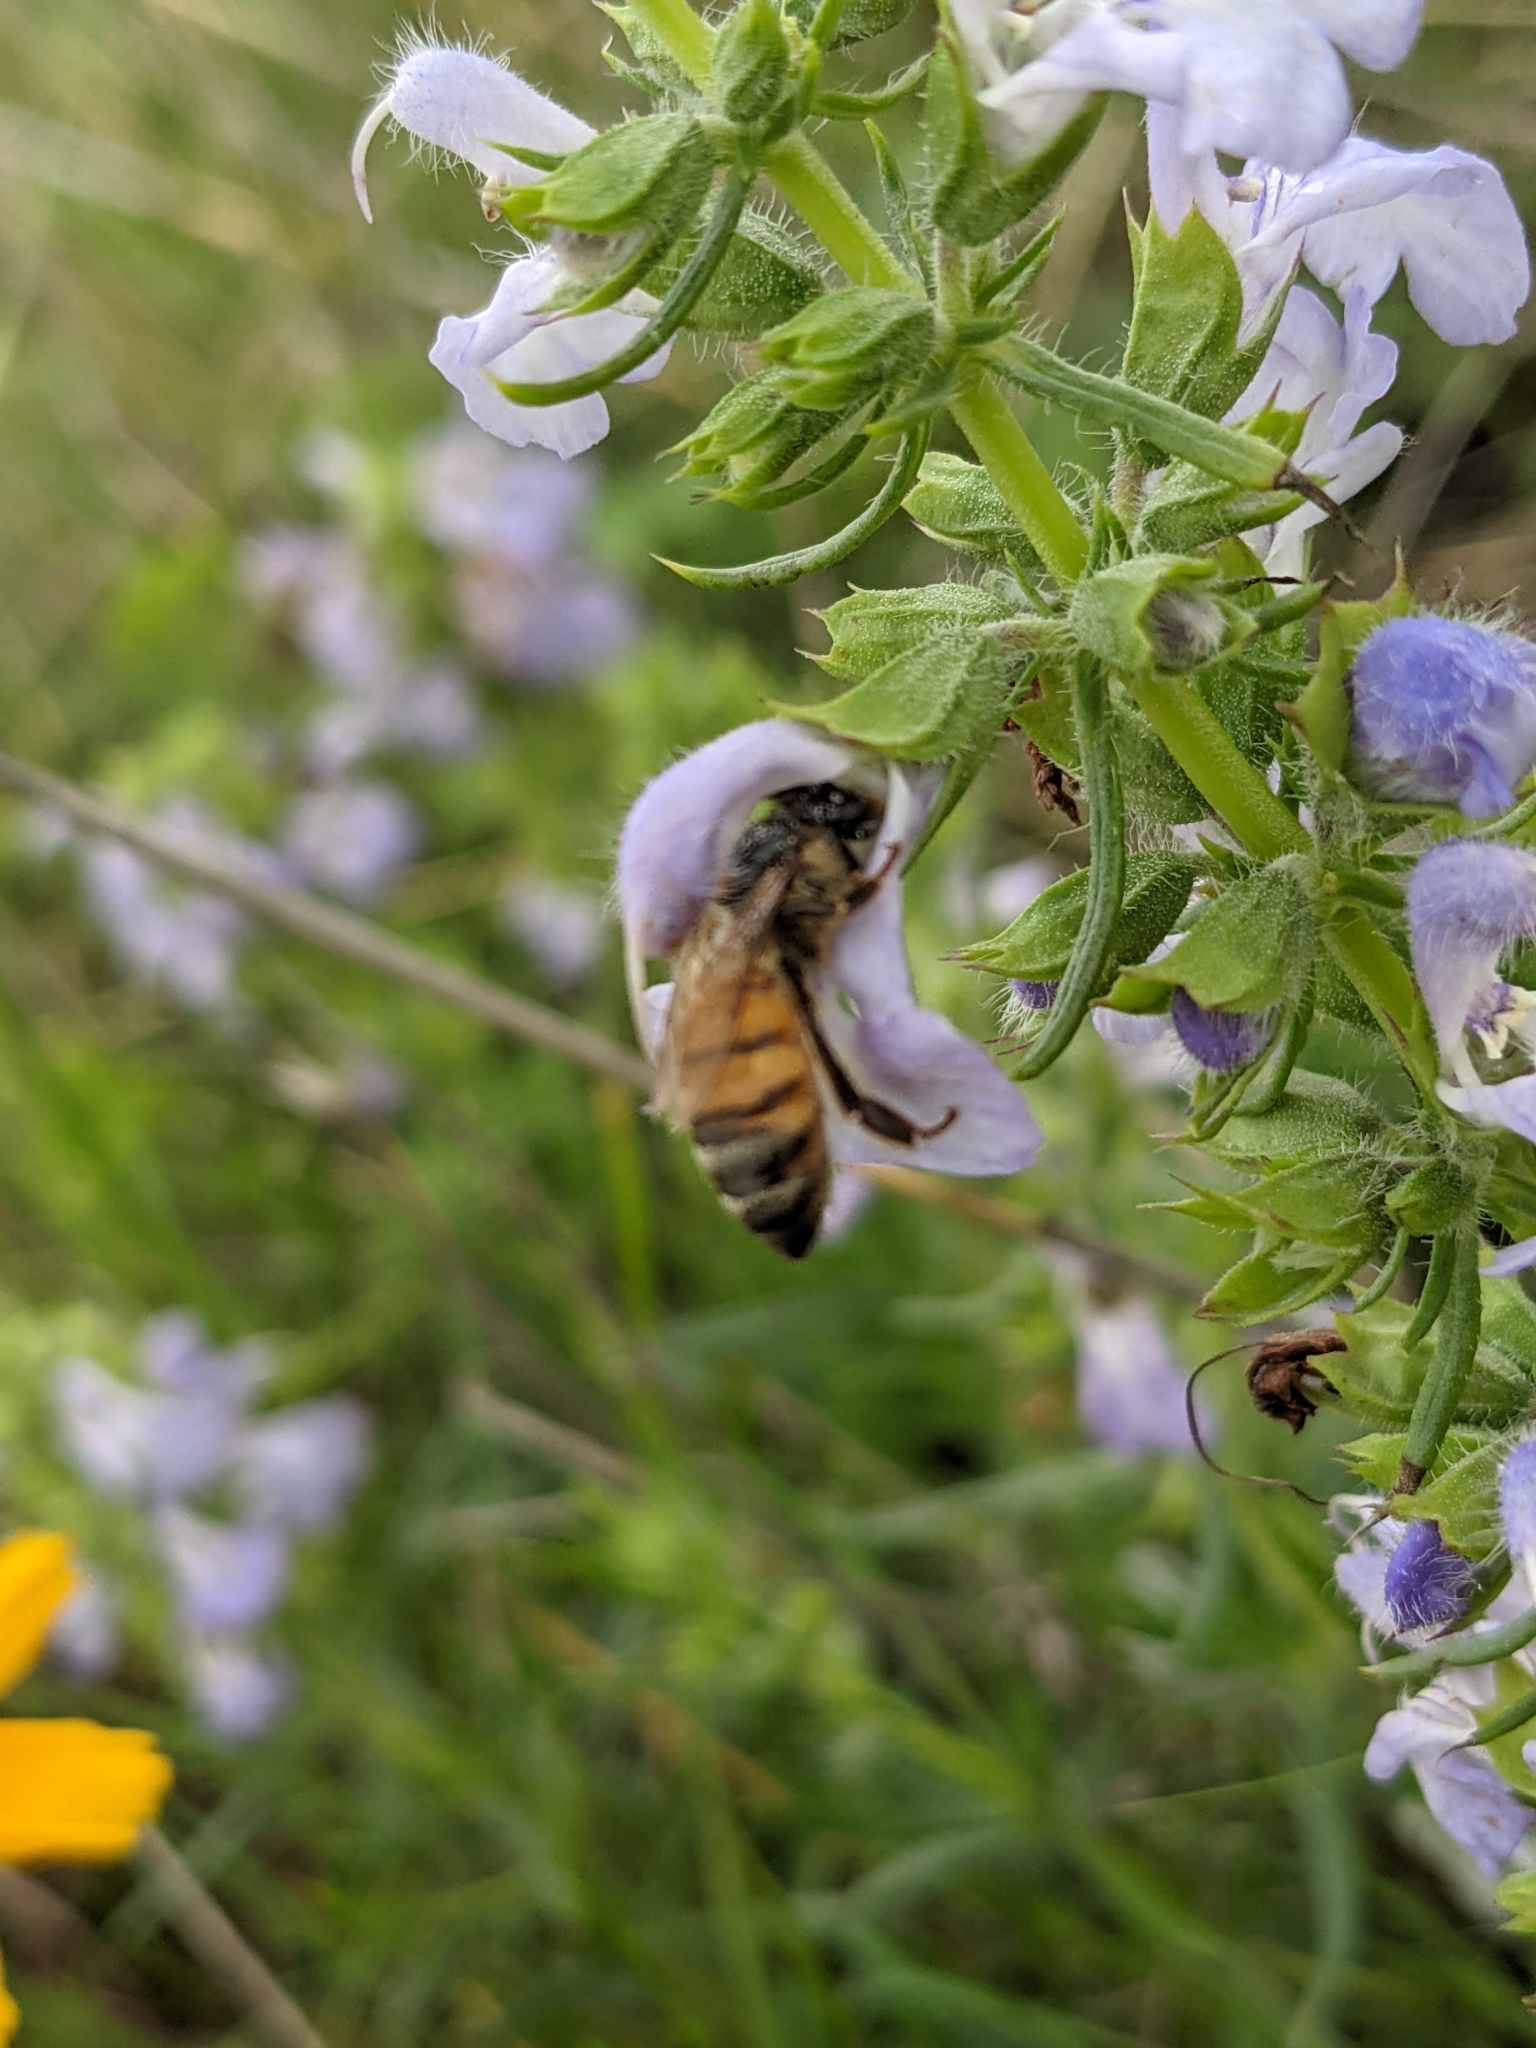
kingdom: Animalia
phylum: Arthropoda
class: Insecta
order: Hymenoptera
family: Apidae
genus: Apis
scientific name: Apis mellifera
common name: Honey bee
